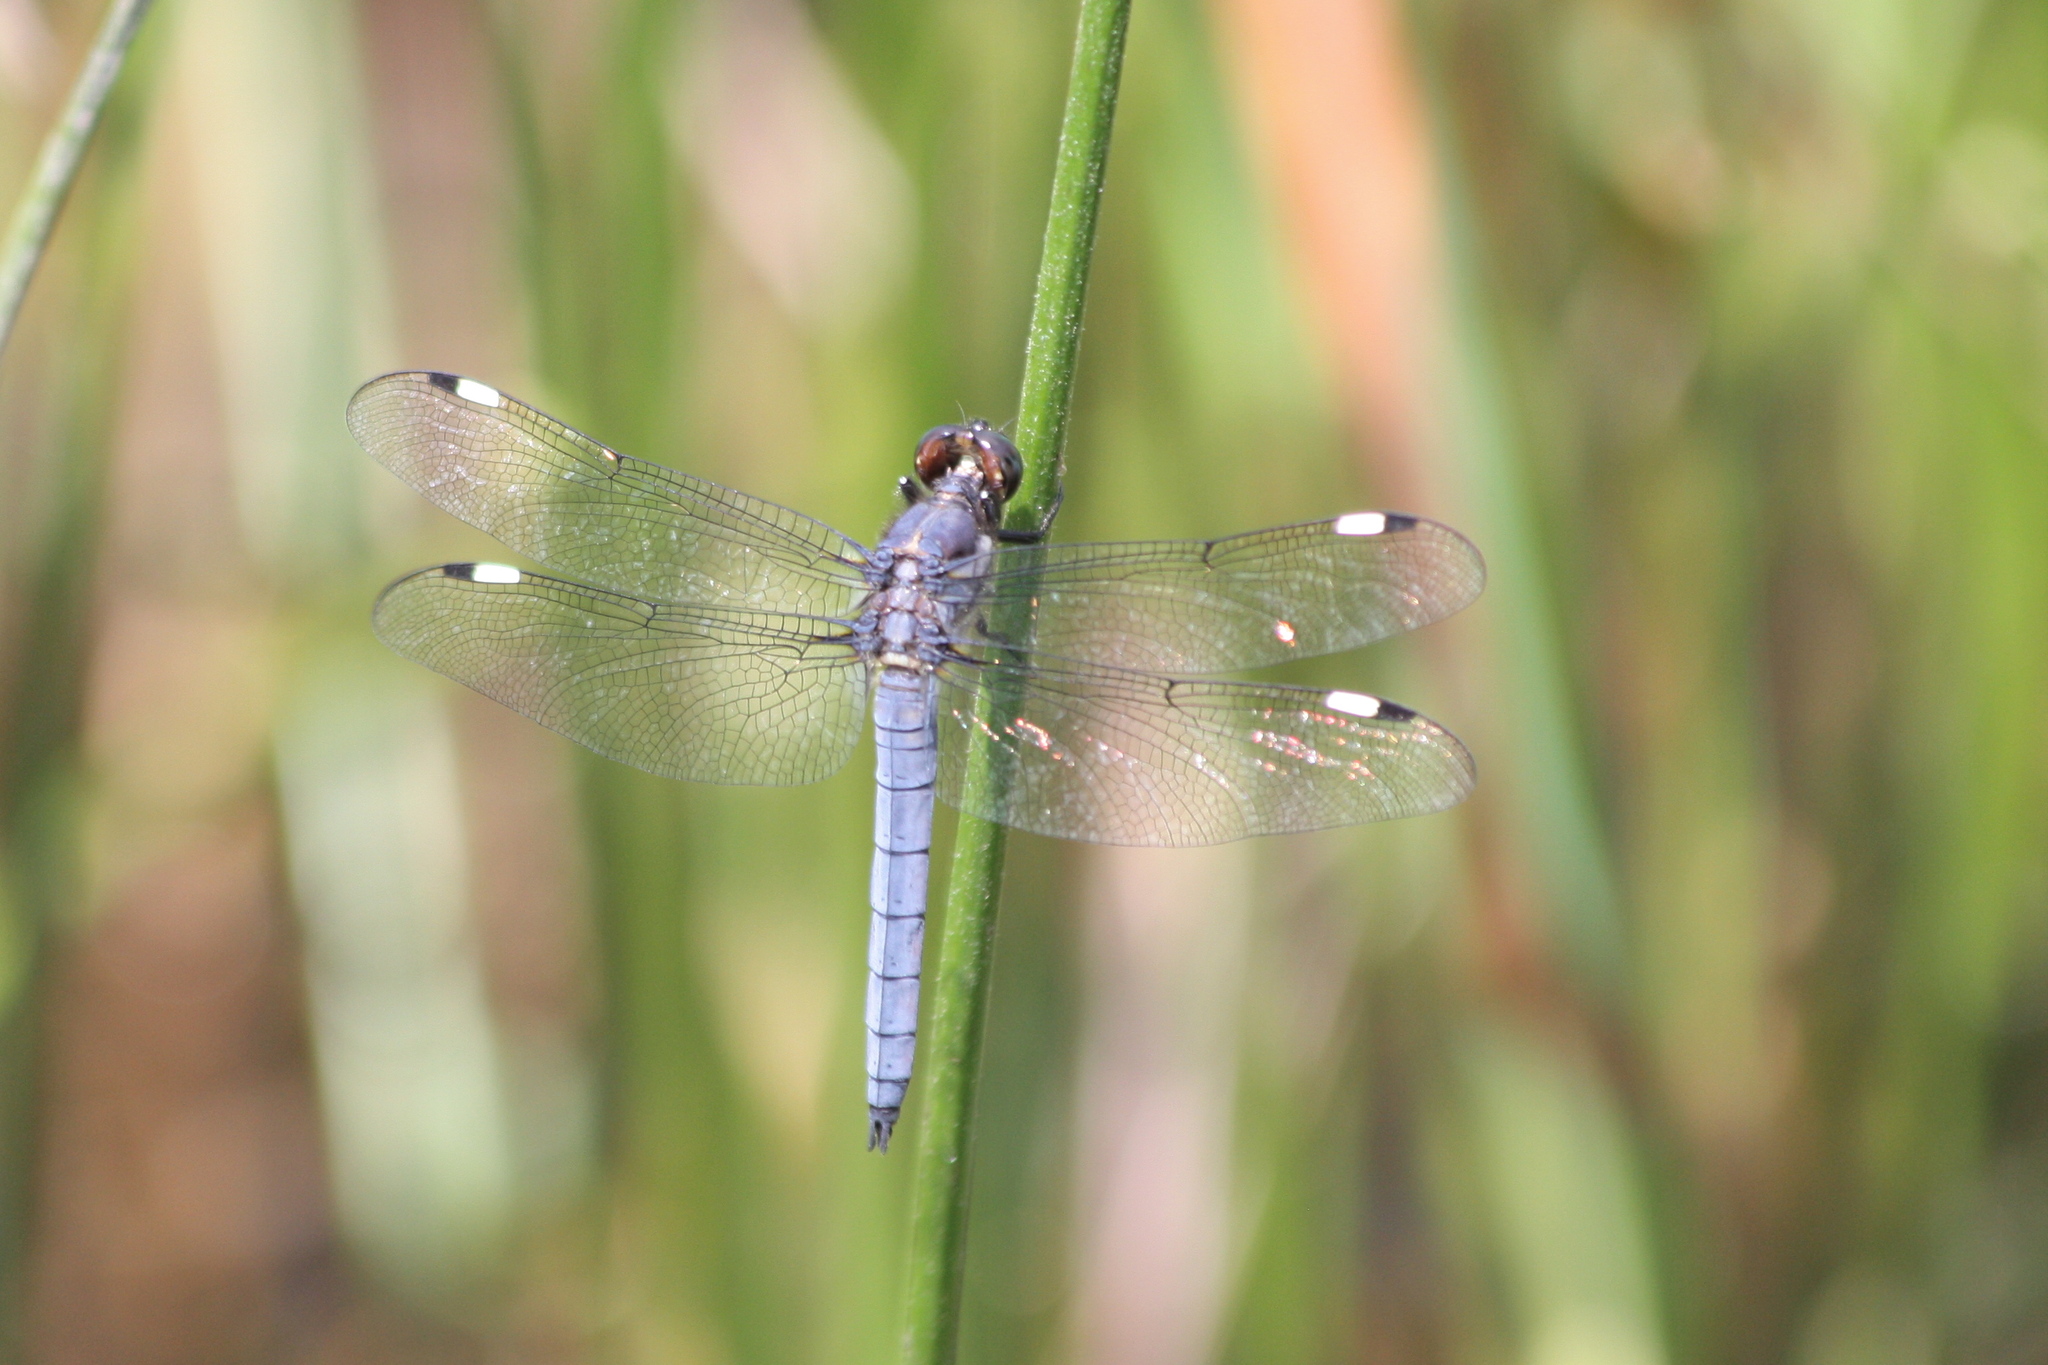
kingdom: Animalia
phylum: Arthropoda
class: Insecta
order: Odonata
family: Libellulidae
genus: Libellula
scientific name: Libellula cyanea
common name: Spangled skimmer
